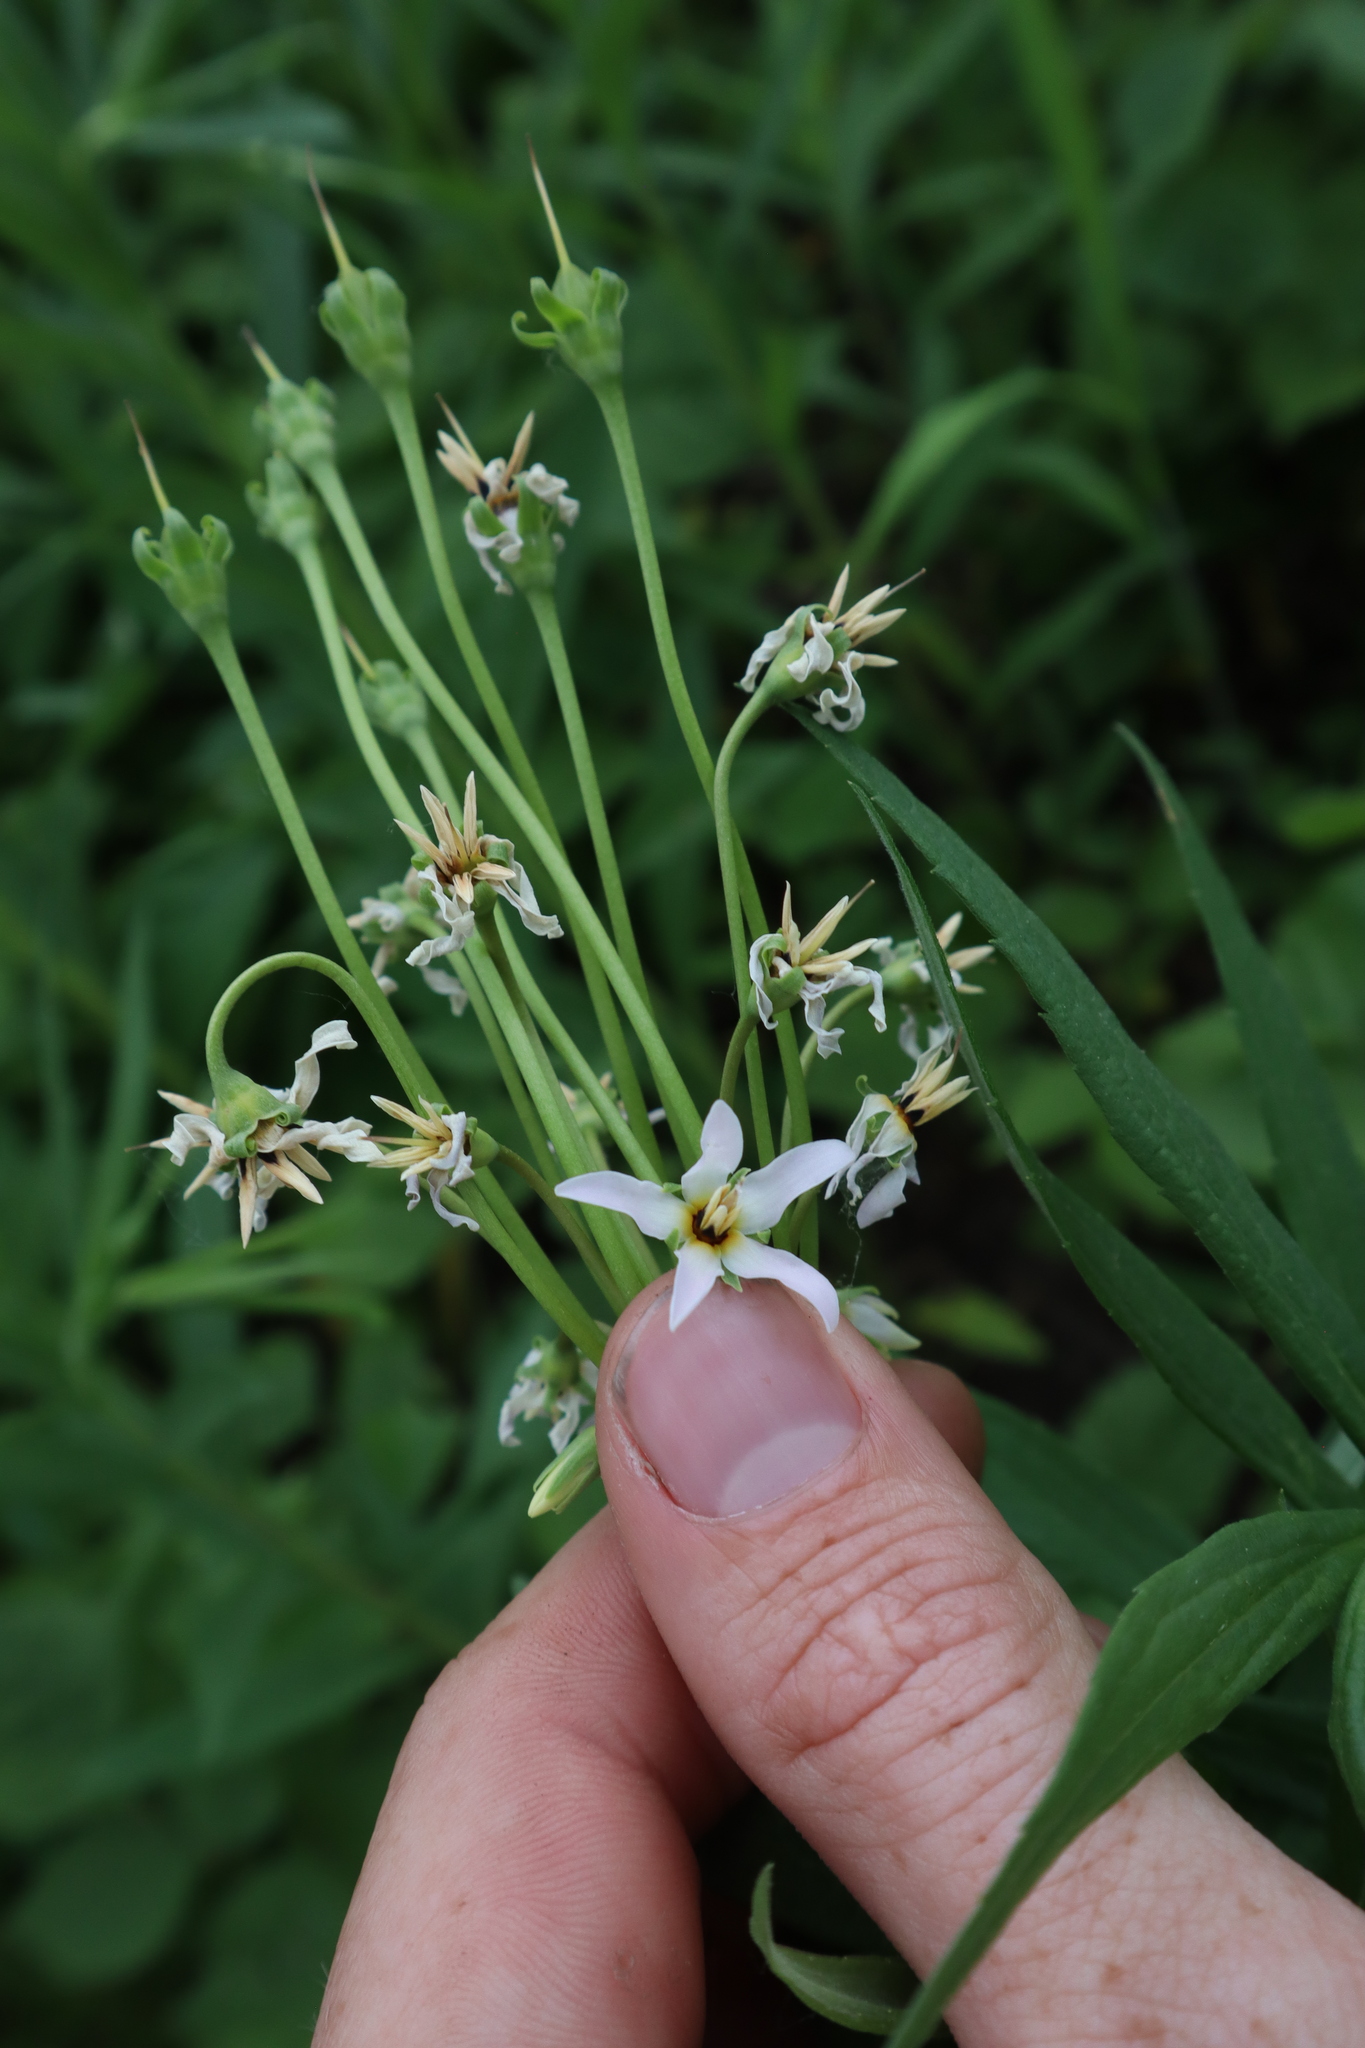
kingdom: Plantae
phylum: Tracheophyta
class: Magnoliopsida
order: Ericales
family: Primulaceae
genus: Dodecatheon
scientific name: Dodecatheon meadia
